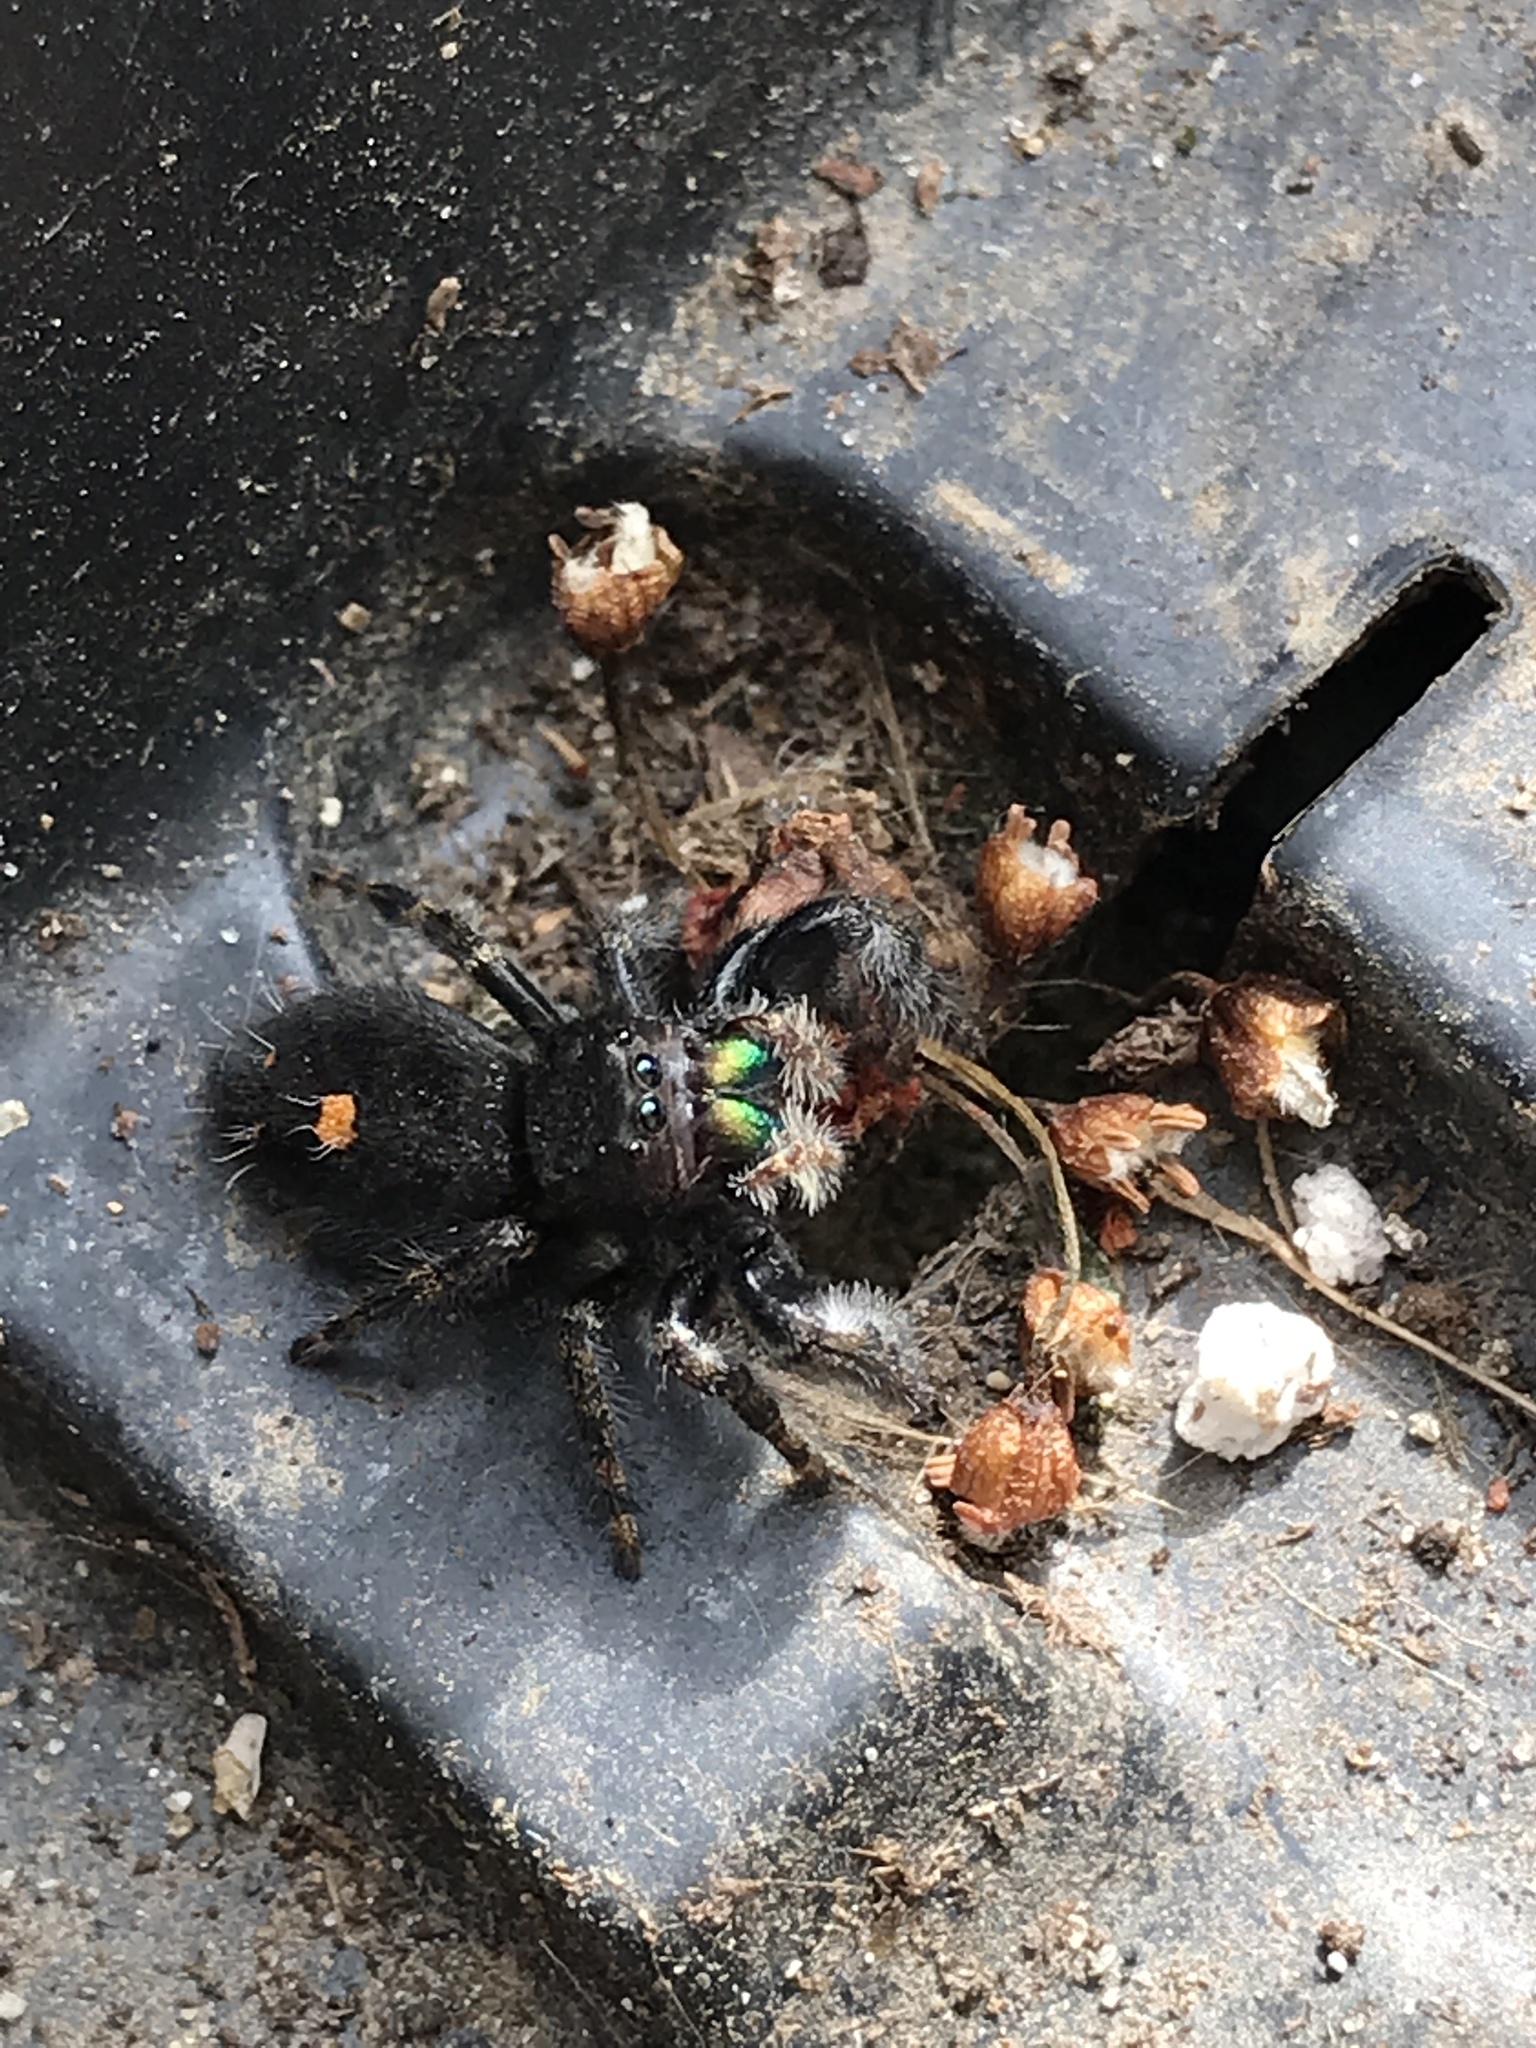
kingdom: Animalia
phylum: Arthropoda
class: Arachnida
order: Araneae
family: Salticidae
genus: Phidippus
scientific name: Phidippus audax
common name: Bold jumper
